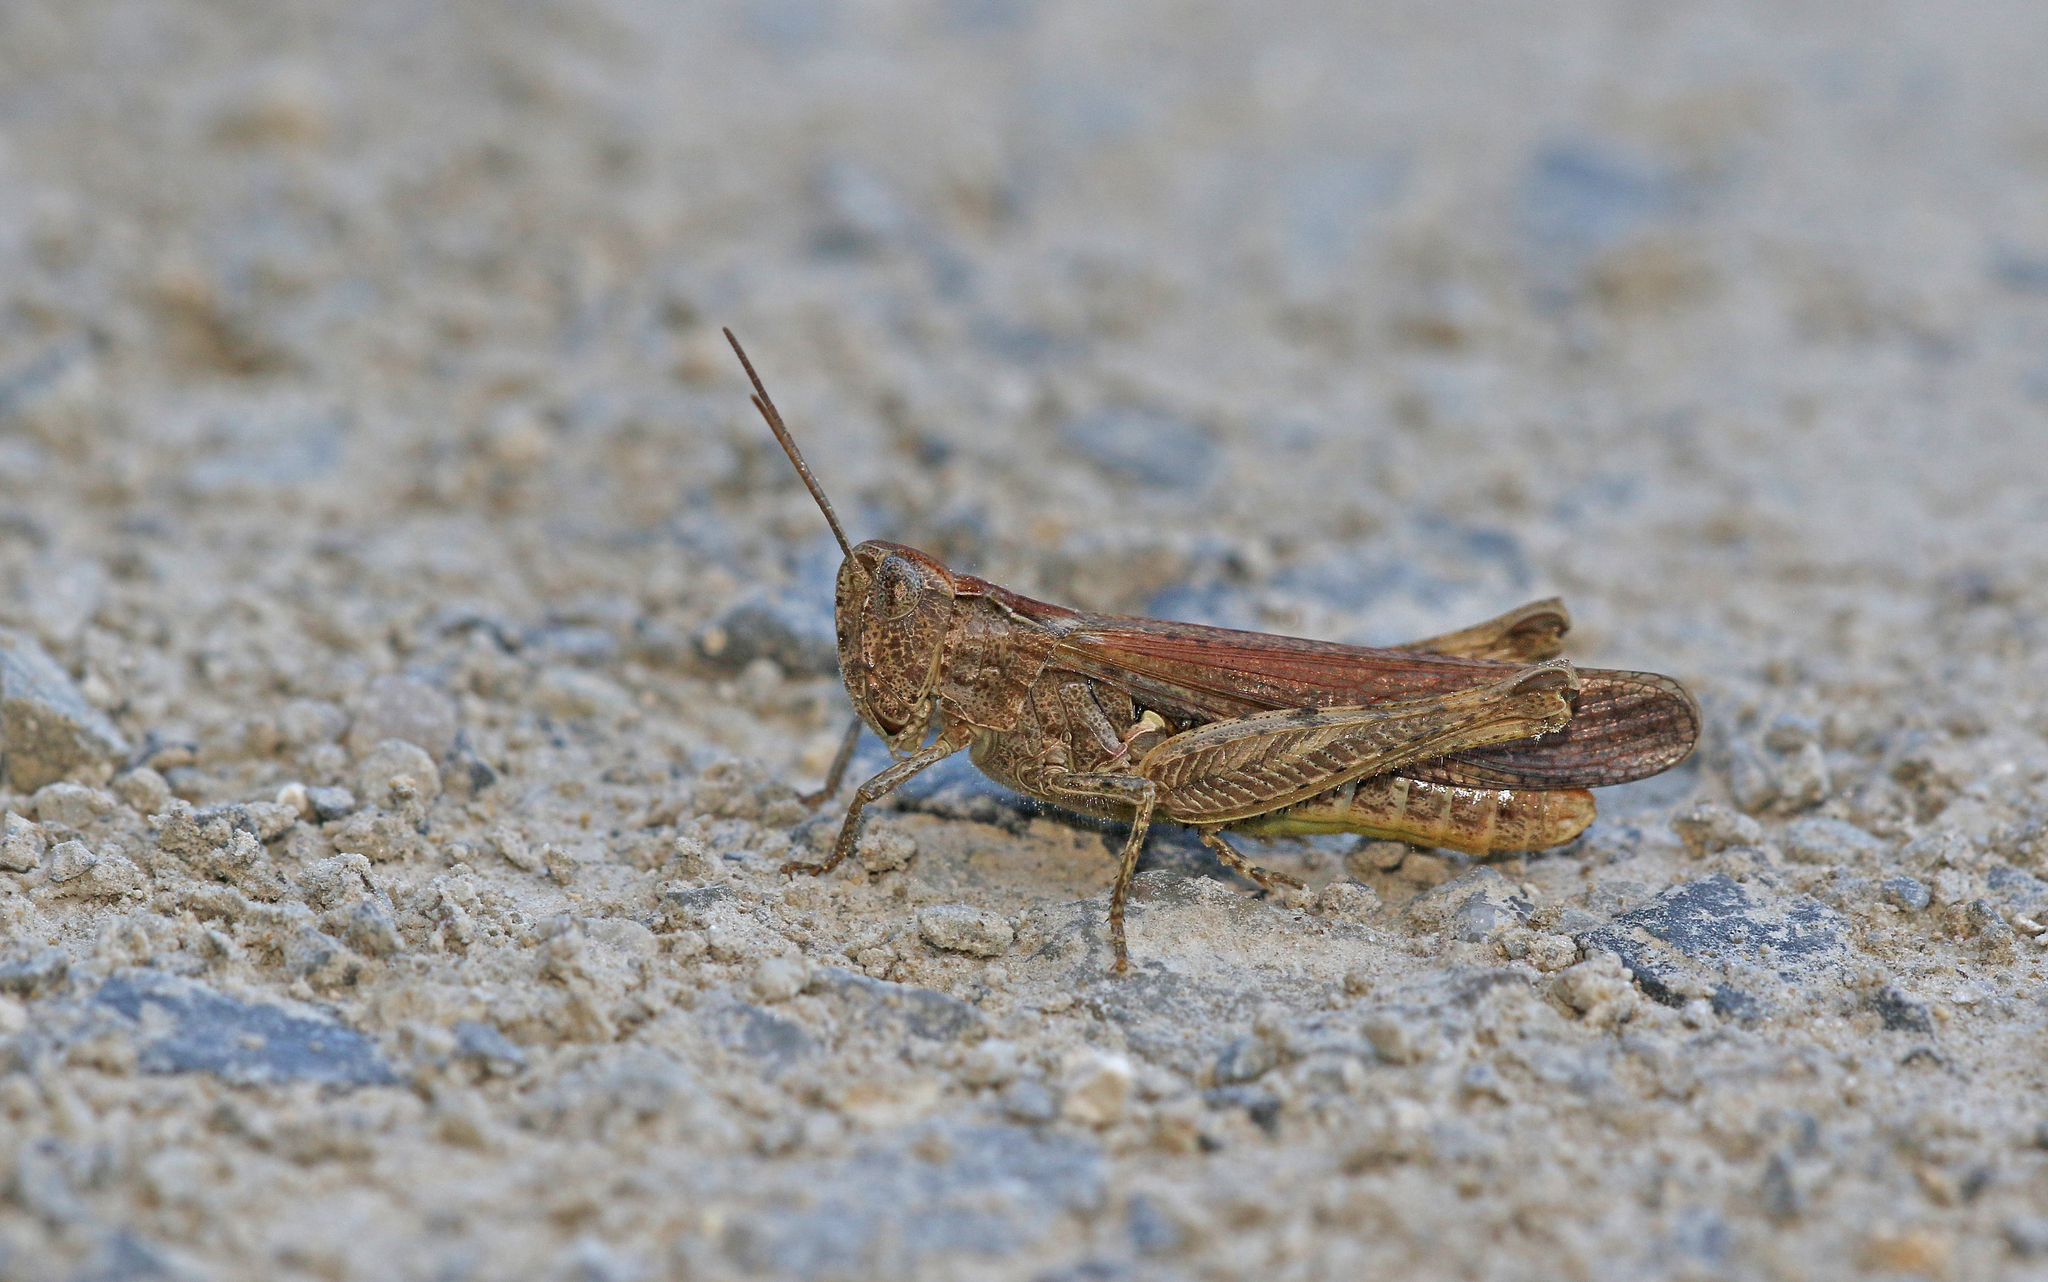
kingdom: Animalia
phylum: Arthropoda
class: Insecta
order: Orthoptera
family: Acrididae
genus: Chorthippus
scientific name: Chorthippus brunneus
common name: Field grasshopper
